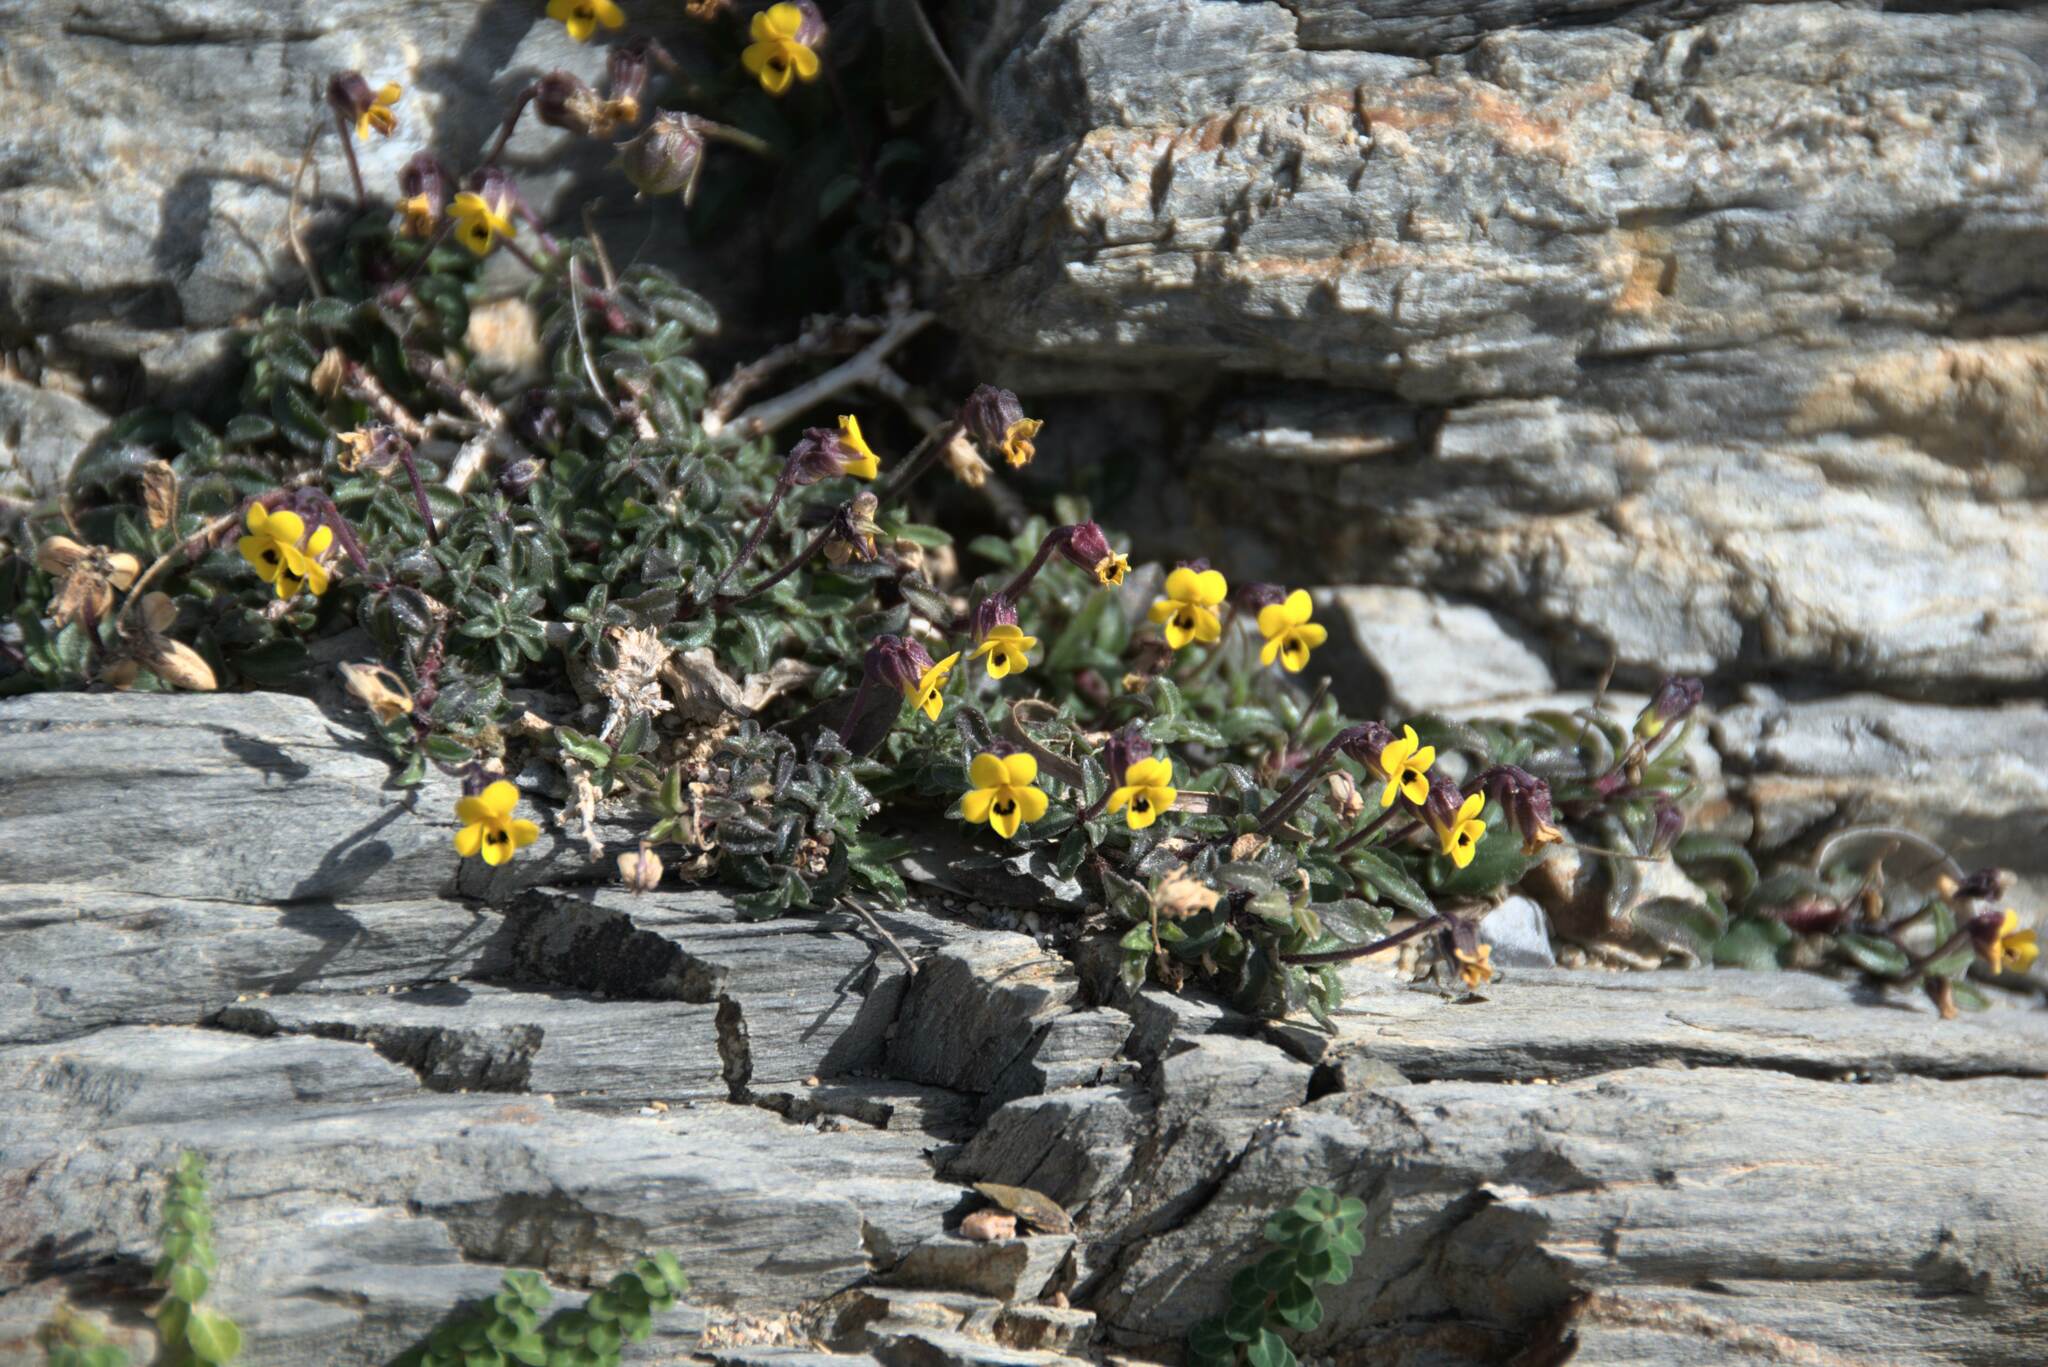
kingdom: Plantae
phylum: Tracheophyta
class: Magnoliopsida
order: Malpighiales
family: Violaceae
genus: Viola
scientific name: Viola scorpiuroides
